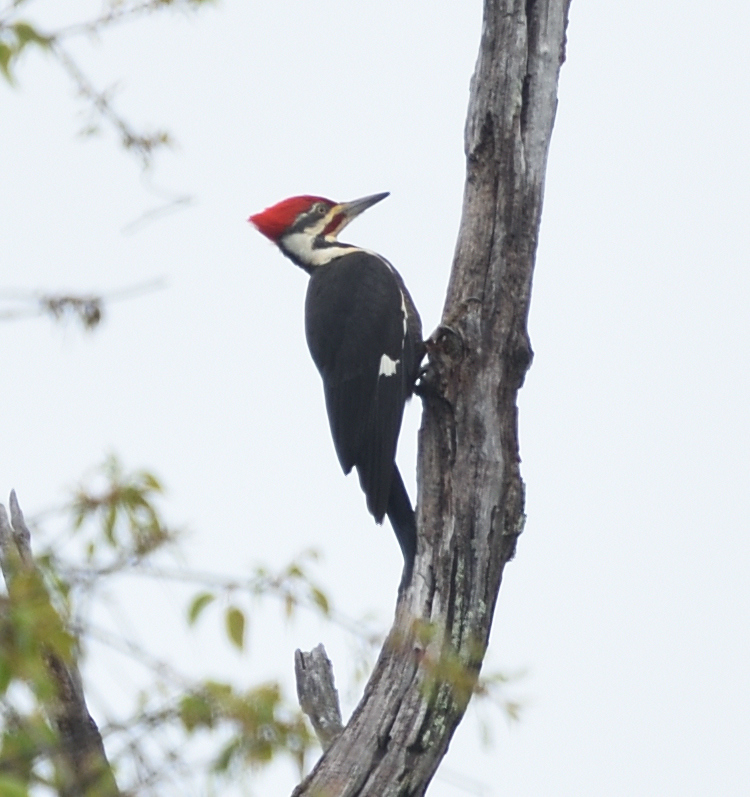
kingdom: Animalia
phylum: Chordata
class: Aves
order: Piciformes
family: Picidae
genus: Dryocopus
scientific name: Dryocopus pileatus
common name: Pileated woodpecker
